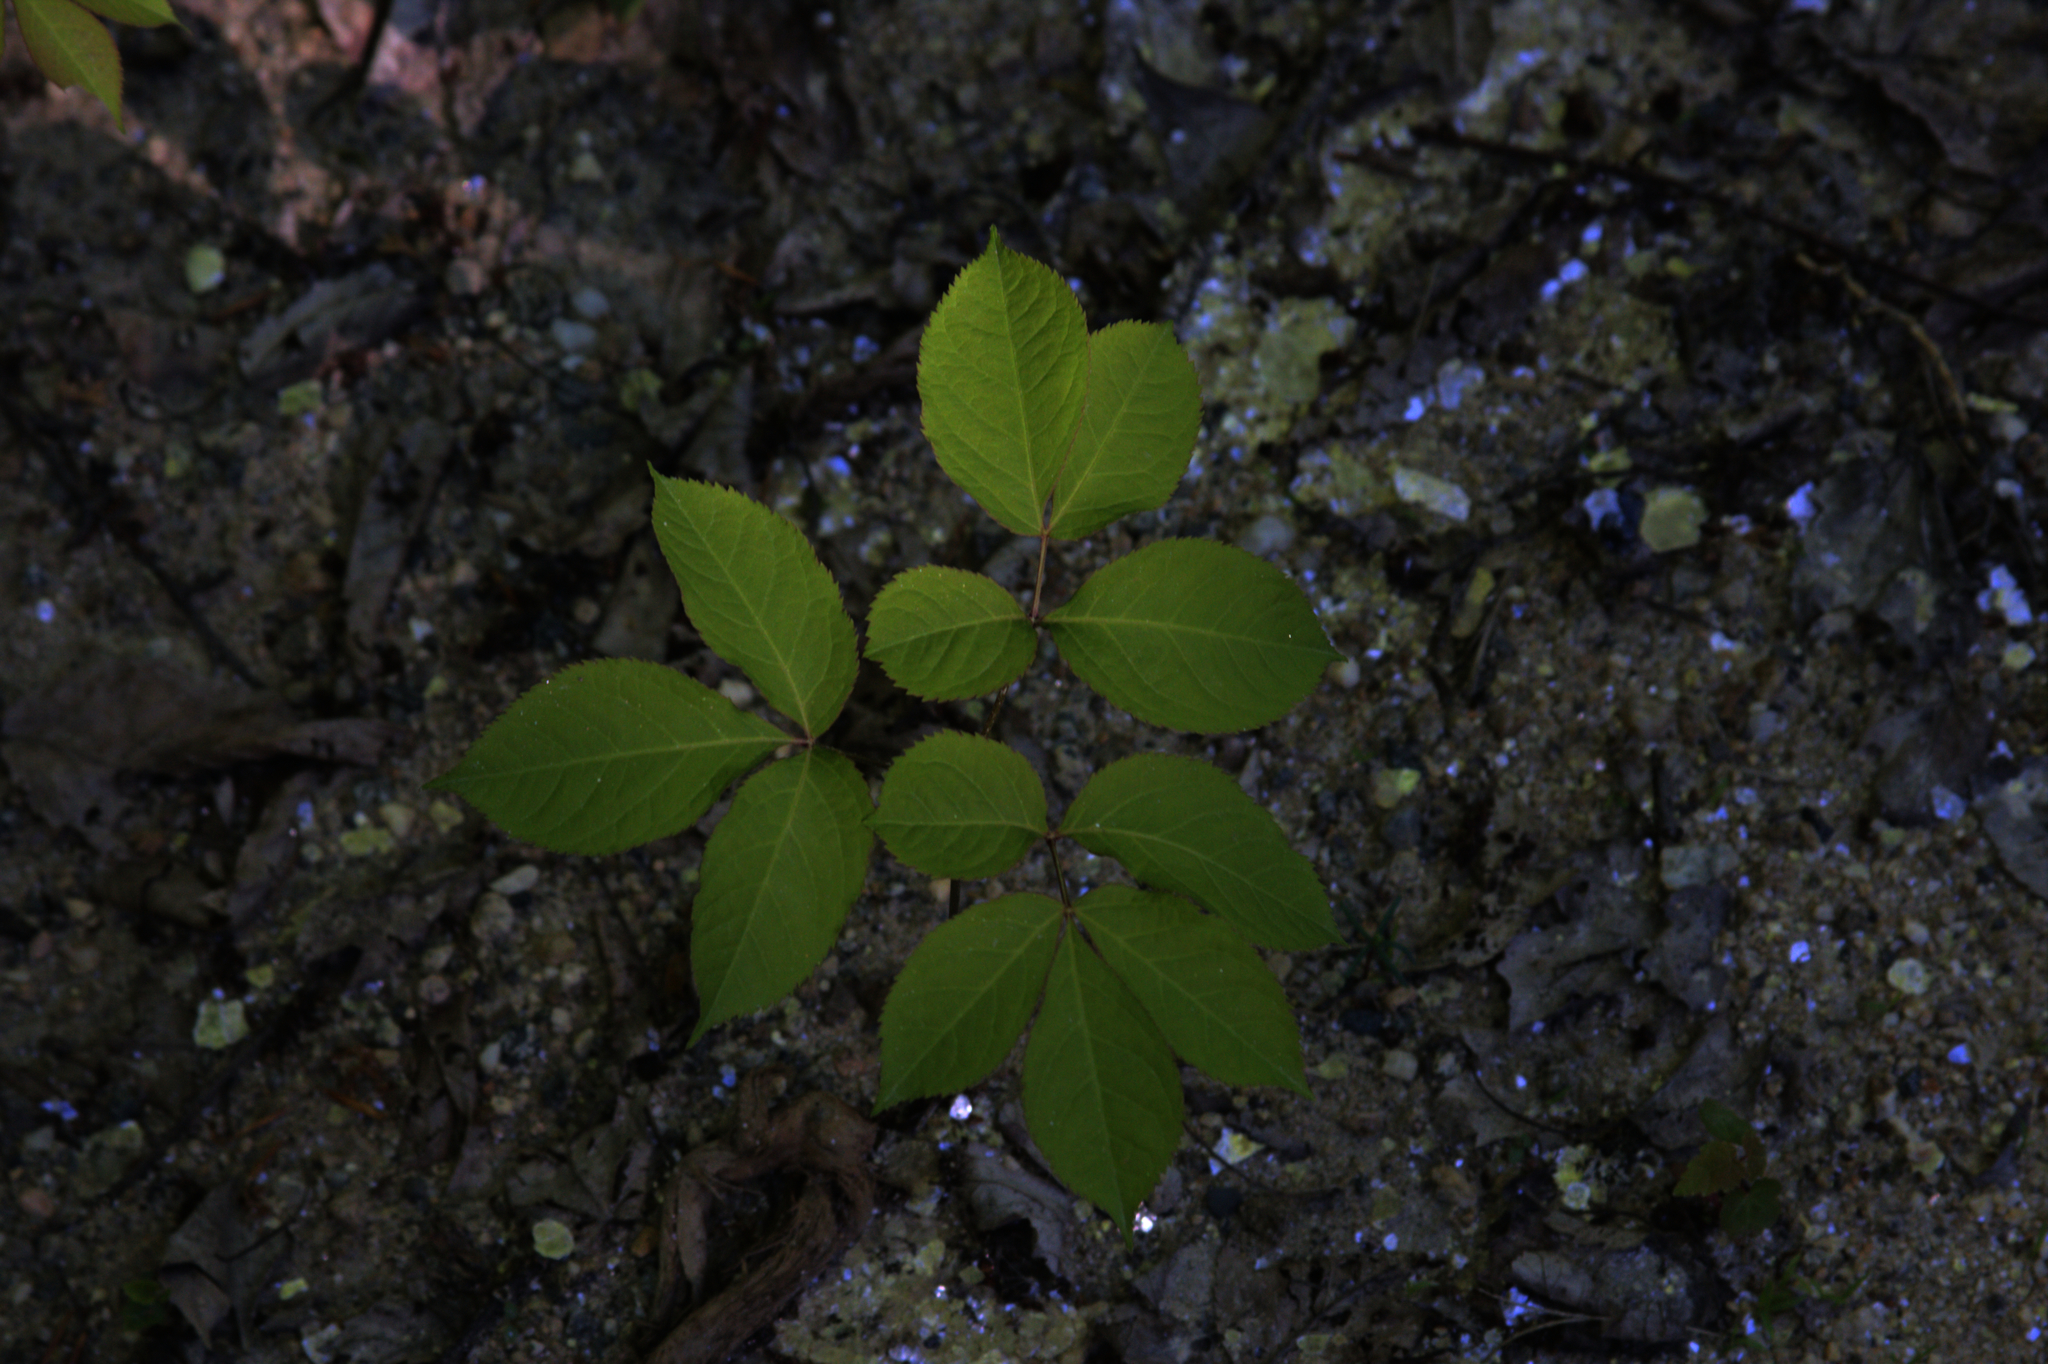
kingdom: Plantae
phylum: Tracheophyta
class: Magnoliopsida
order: Apiales
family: Araliaceae
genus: Aralia
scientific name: Aralia nudicaulis
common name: Wild sarsaparilla
